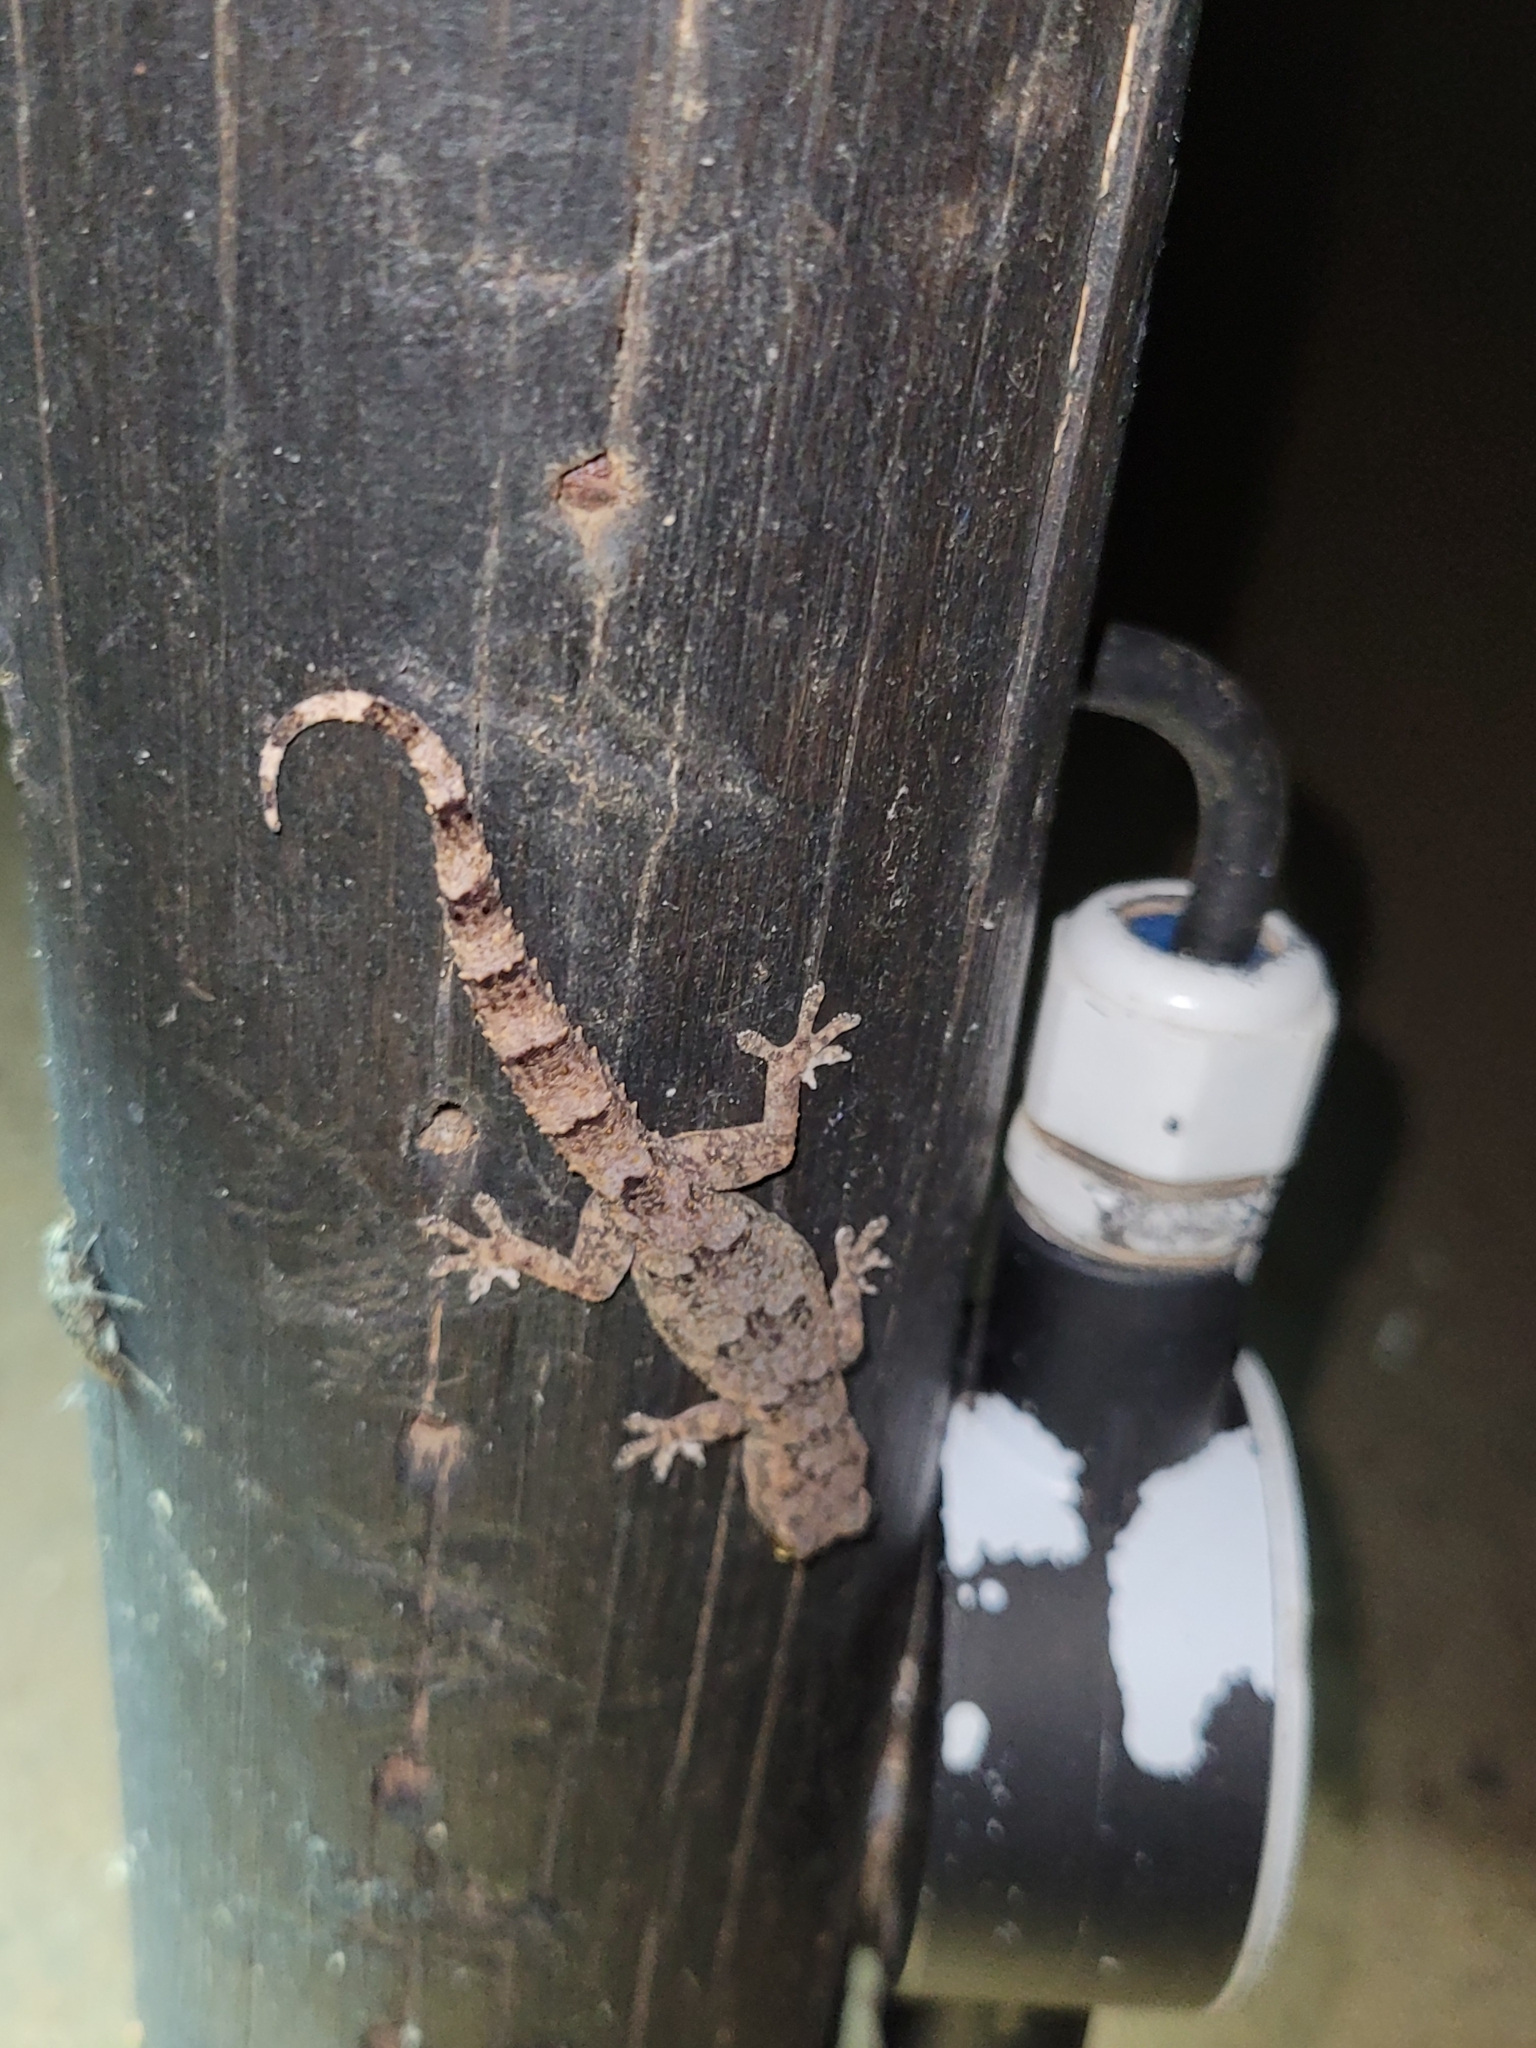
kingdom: Animalia
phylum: Chordata
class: Squamata
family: Gekkonidae
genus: Hemidactylus
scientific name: Hemidactylus mabouia
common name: House gecko
